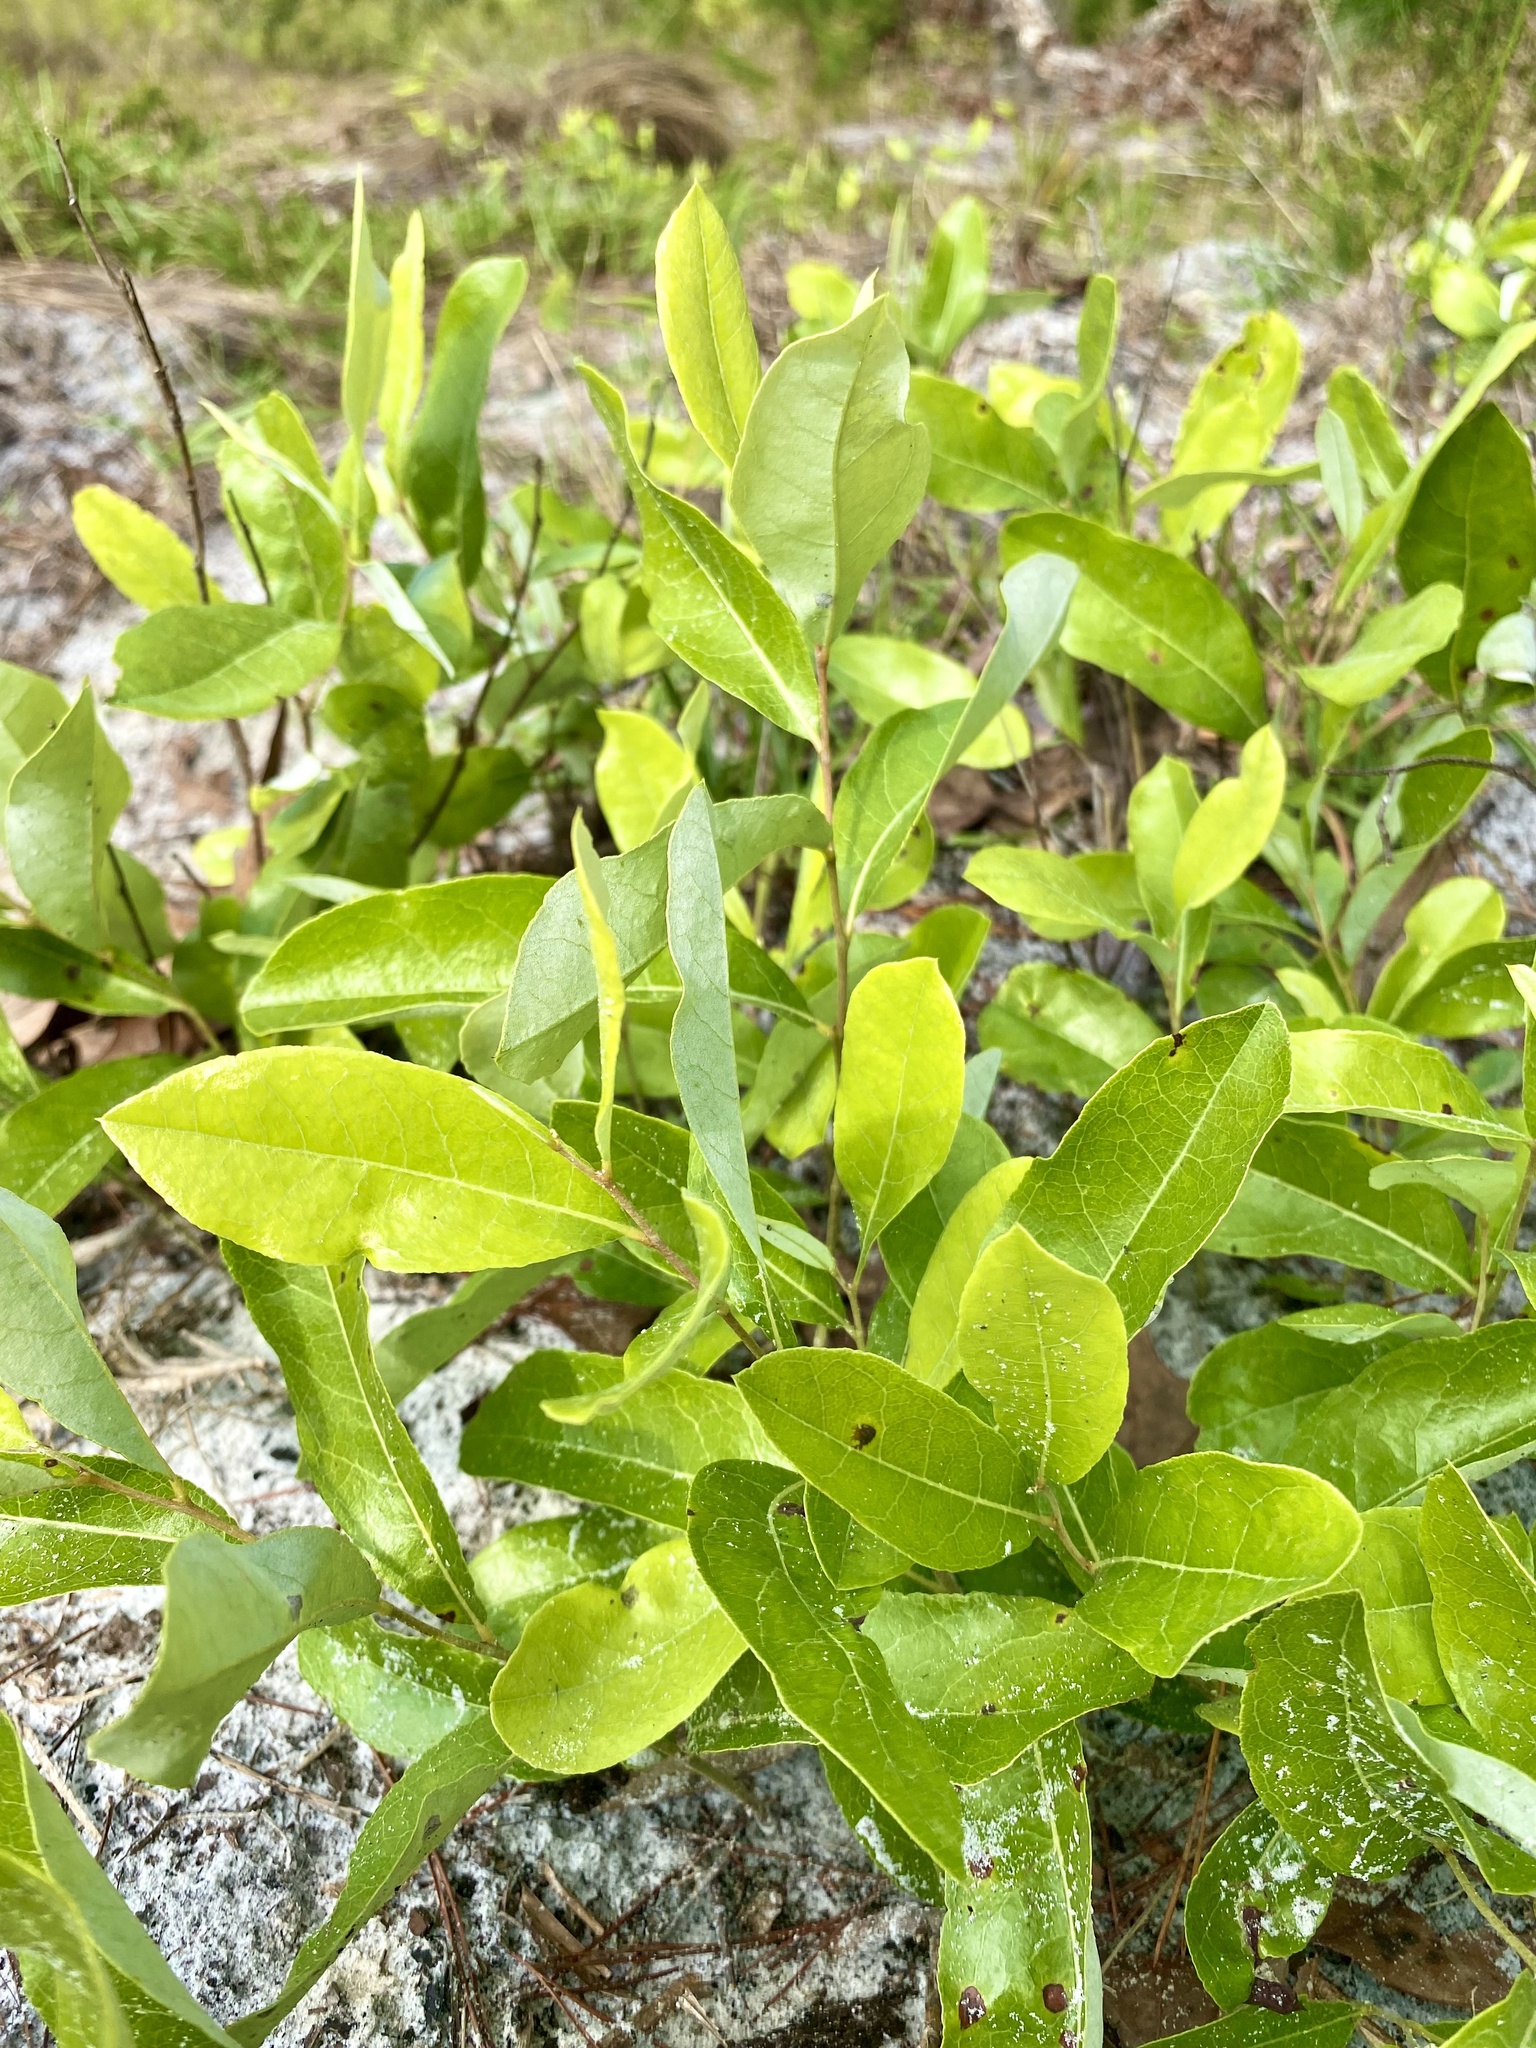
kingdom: Plantae
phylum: Tracheophyta
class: Magnoliopsida
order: Malpighiales
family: Chrysobalanaceae
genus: Geobalanus
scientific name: Geobalanus oblongifolius
